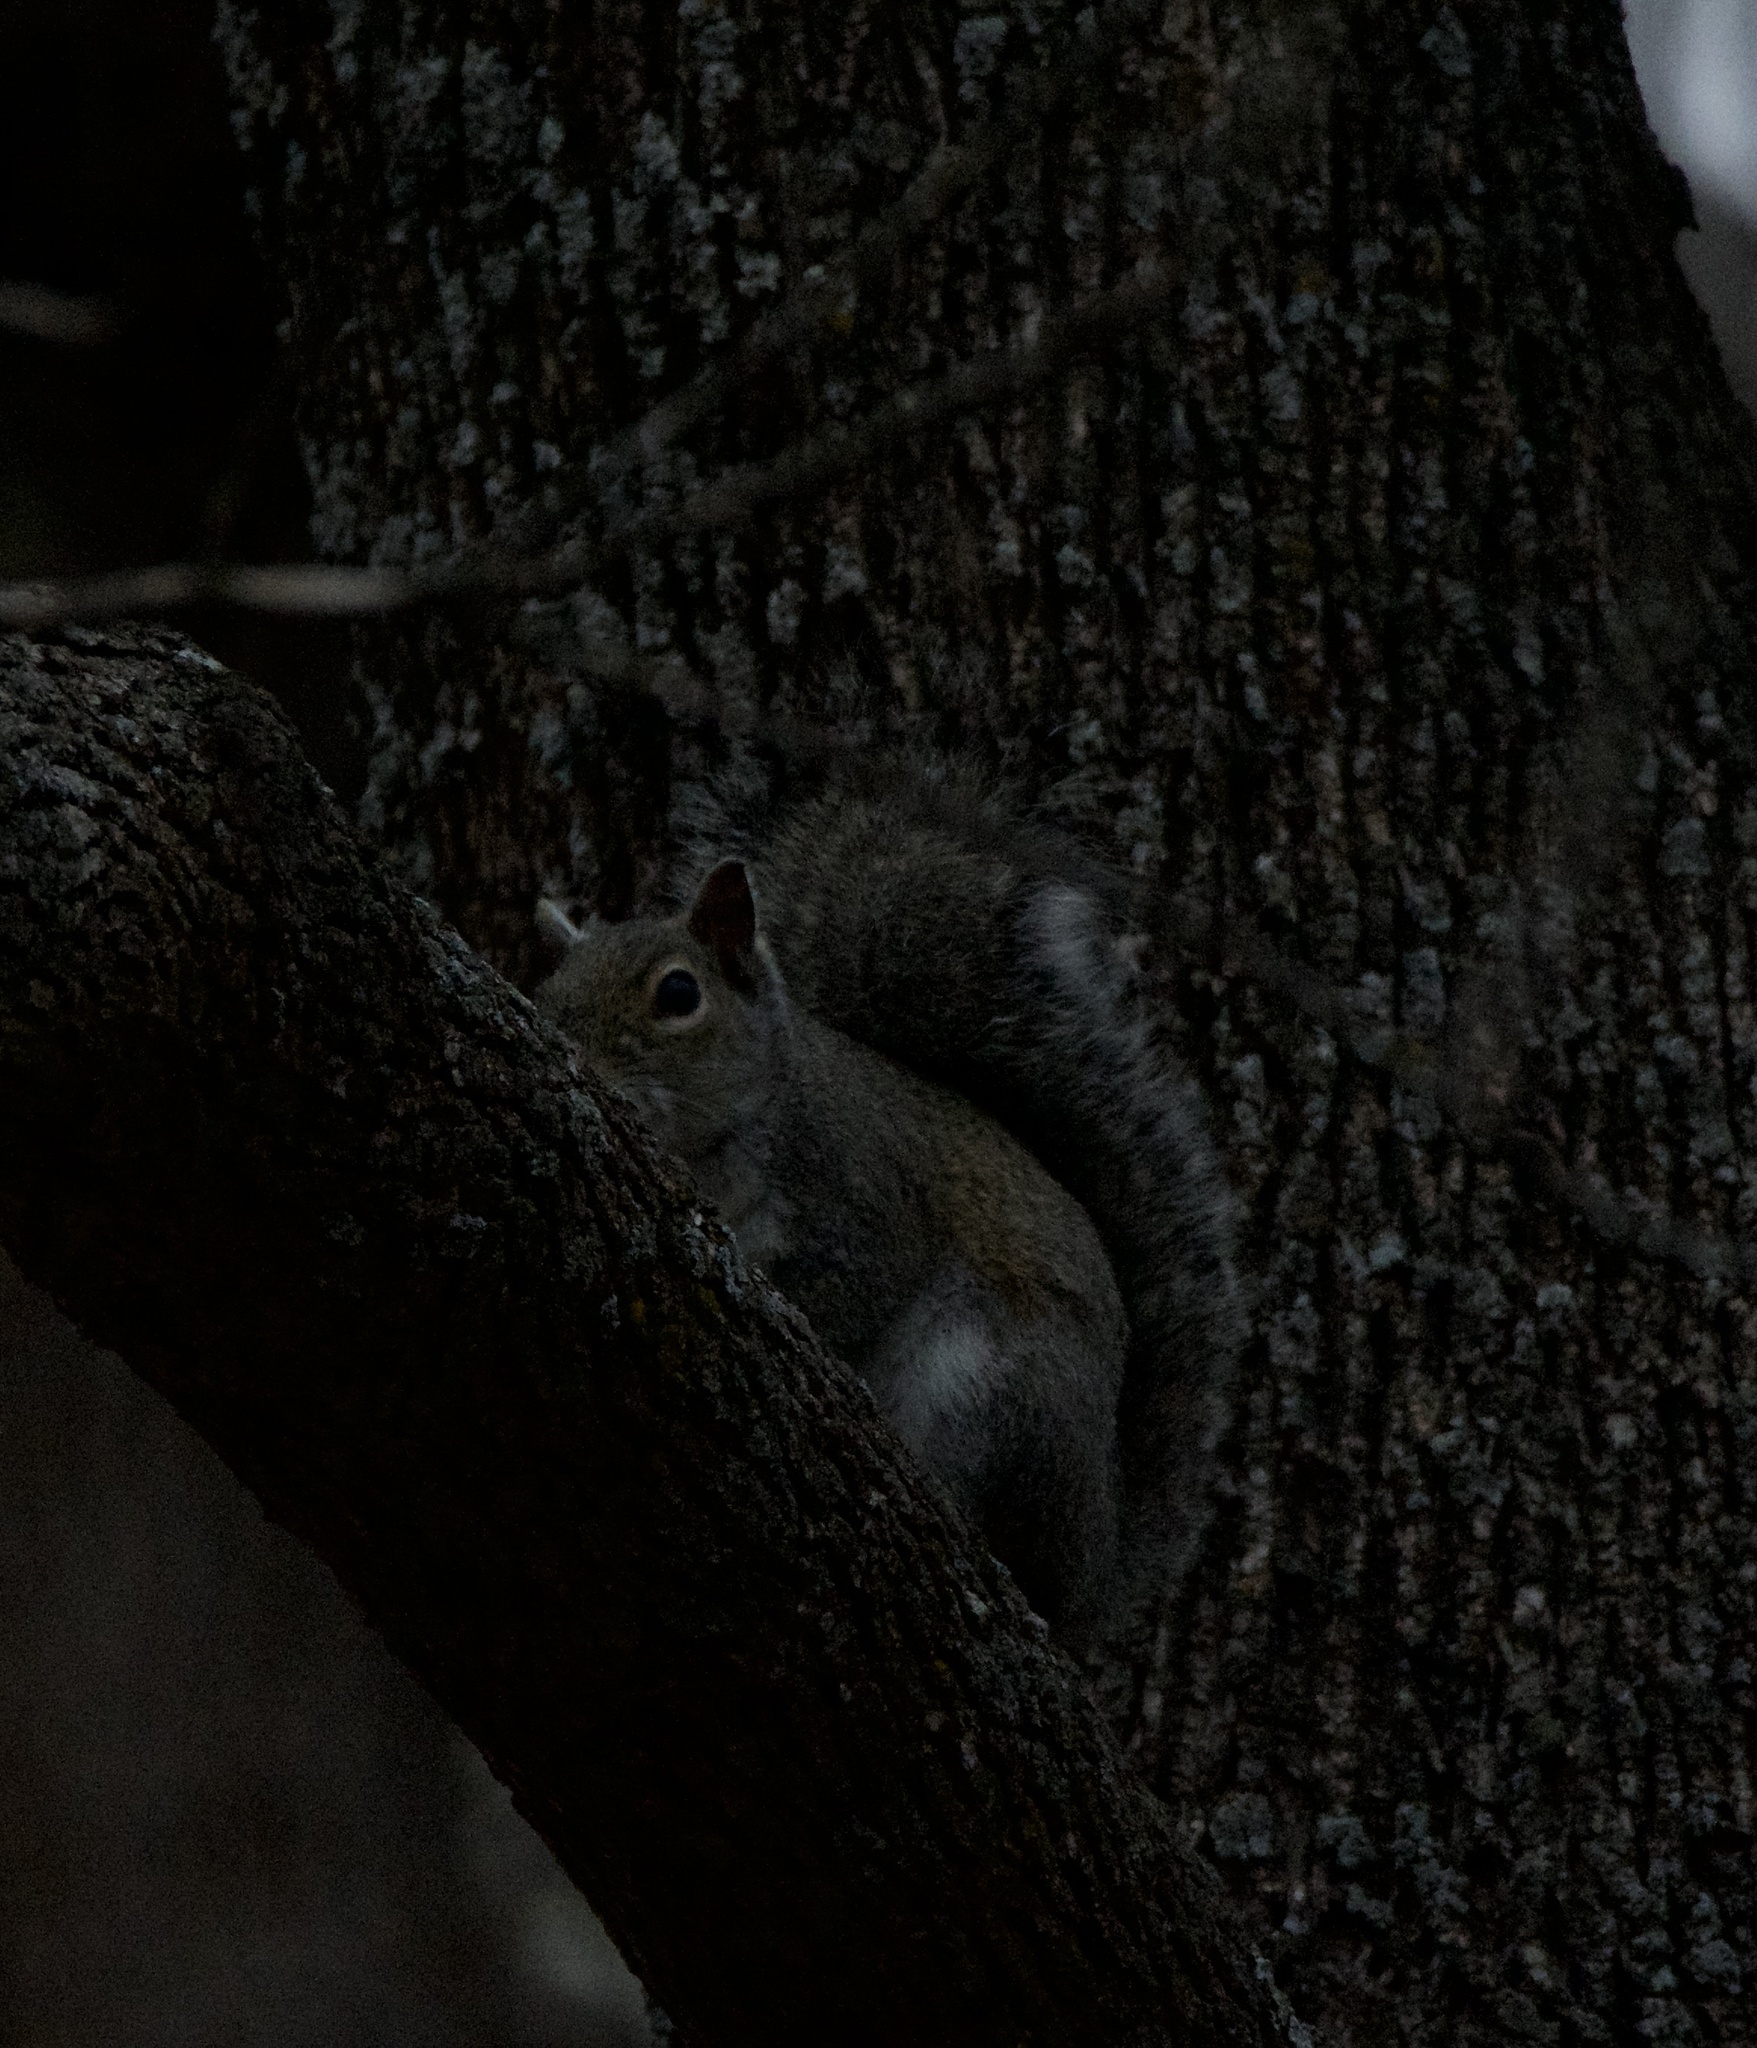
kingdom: Animalia
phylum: Chordata
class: Mammalia
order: Rodentia
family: Sciuridae
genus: Sciurus
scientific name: Sciurus carolinensis
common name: Eastern gray squirrel
